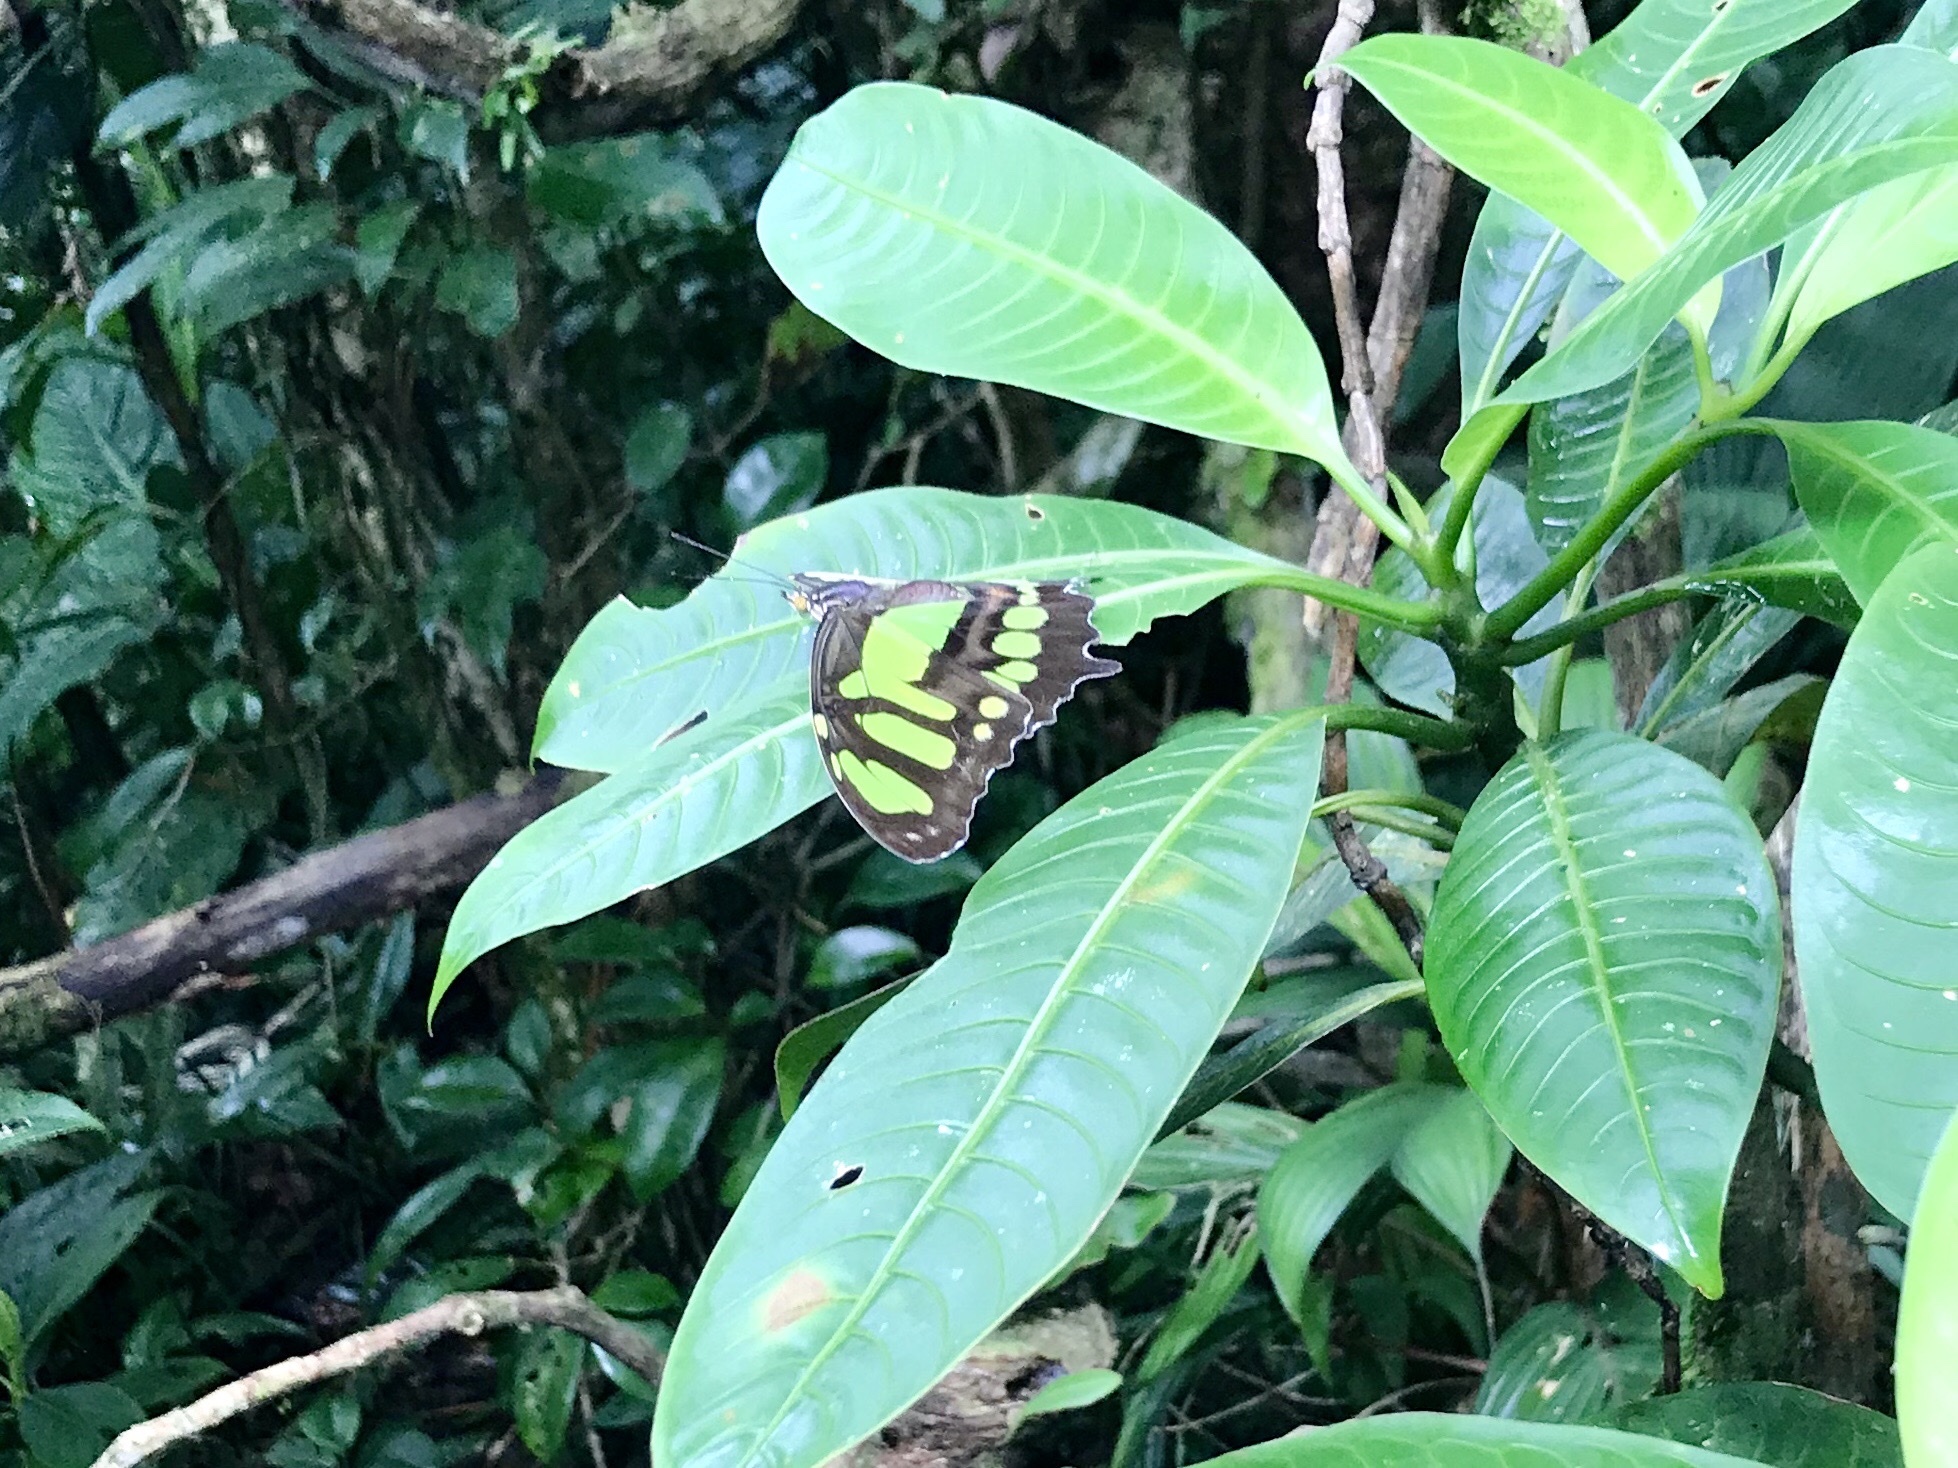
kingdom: Animalia
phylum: Arthropoda
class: Insecta
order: Lepidoptera
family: Nymphalidae
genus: Siproeta
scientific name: Siproeta stelenes
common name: Malachite
